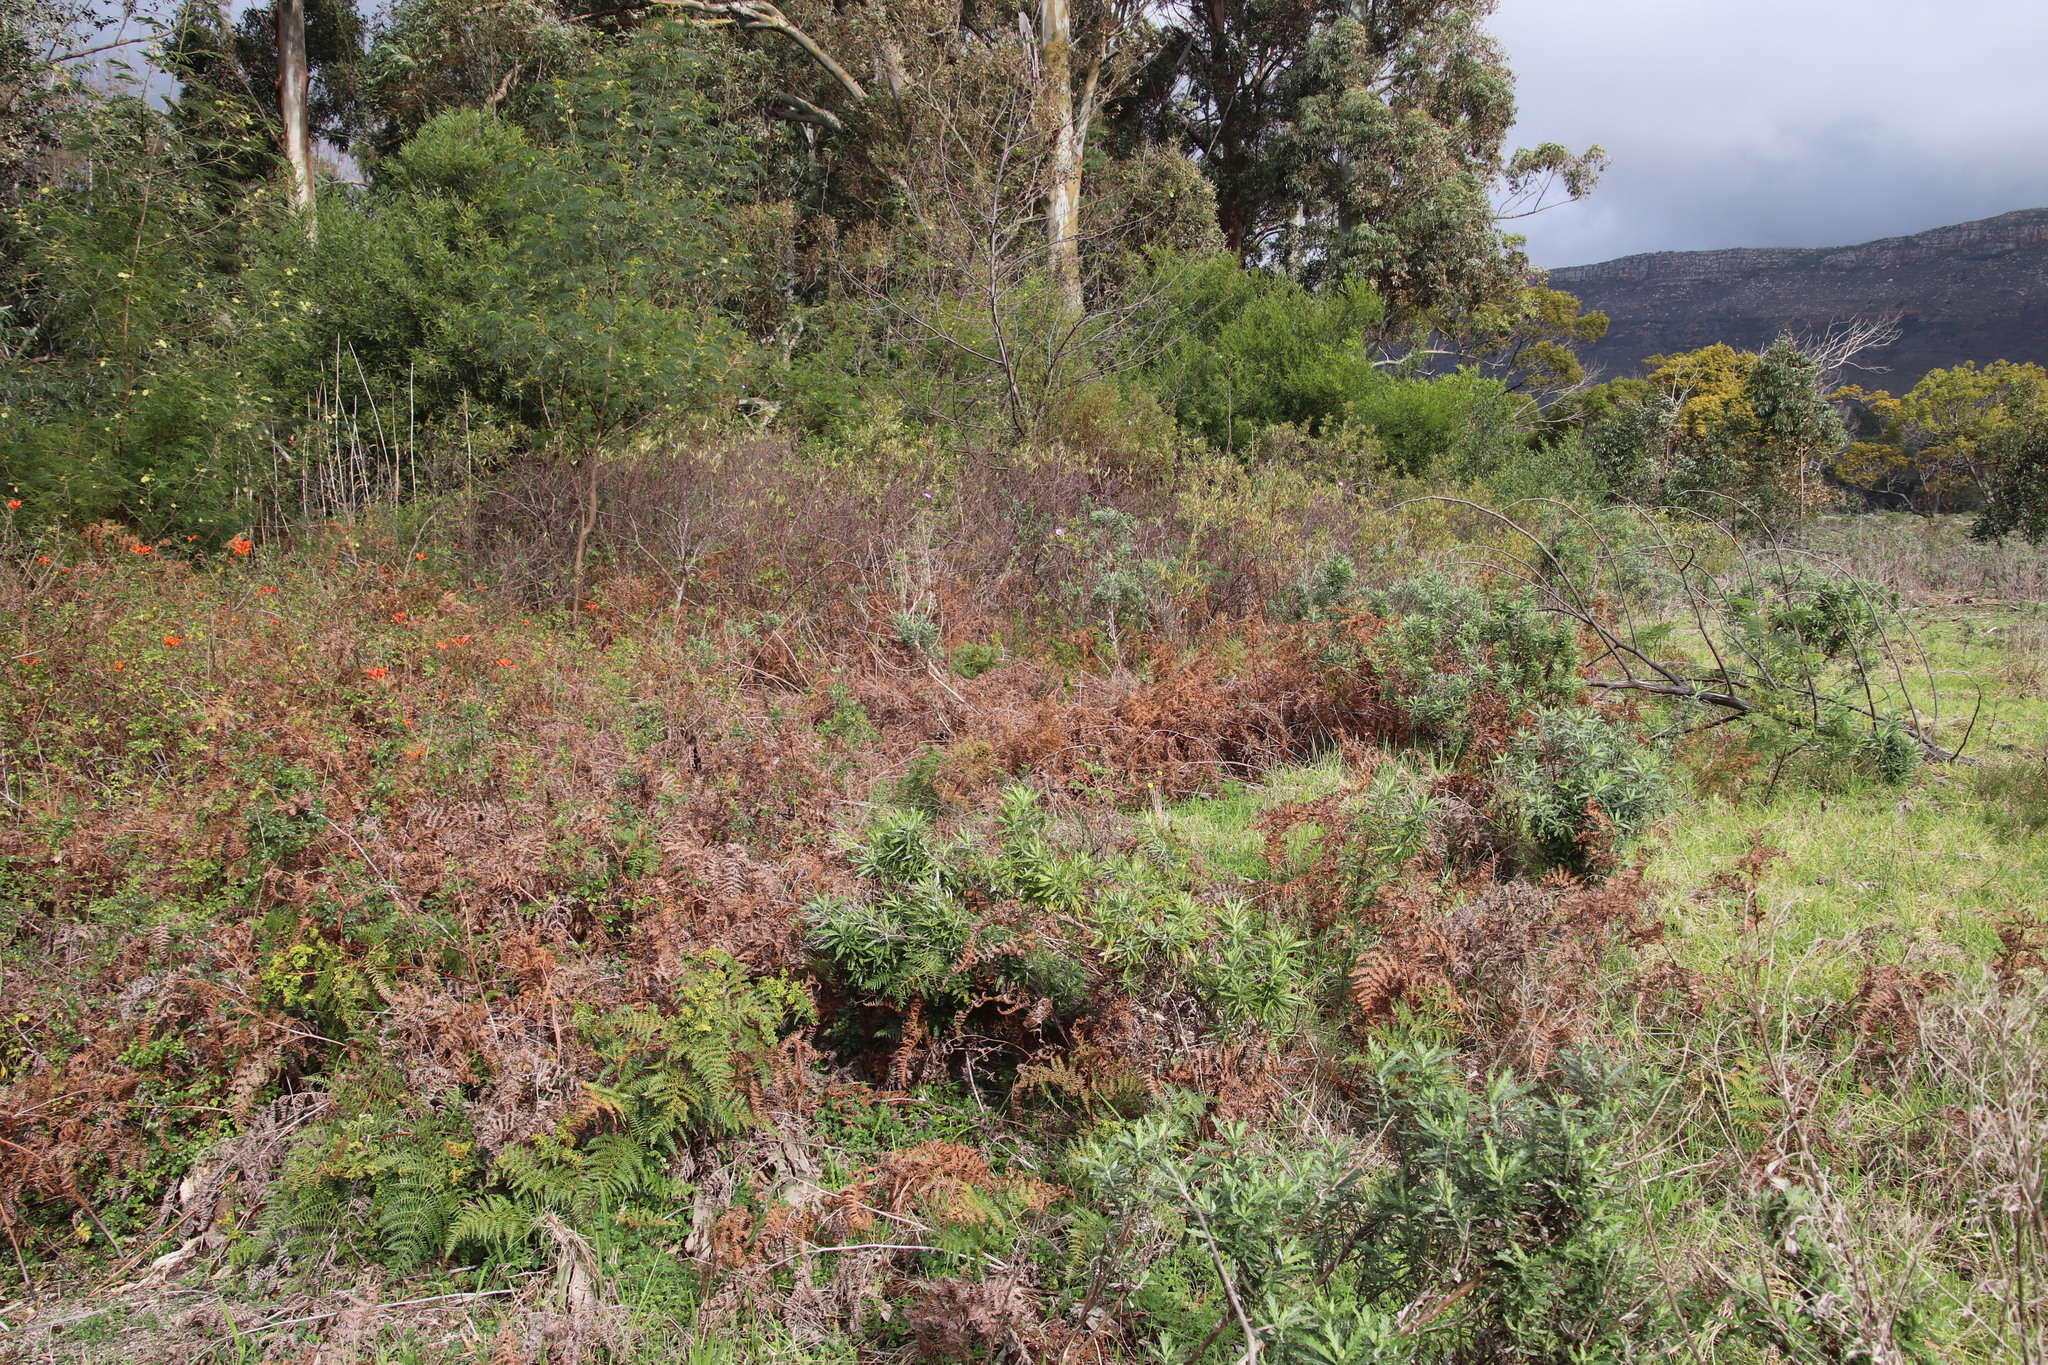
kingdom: Plantae
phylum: Tracheophyta
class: Polypodiopsida
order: Polypodiales
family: Dennstaedtiaceae
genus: Pteridium
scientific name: Pteridium aquilinum
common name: Bracken
